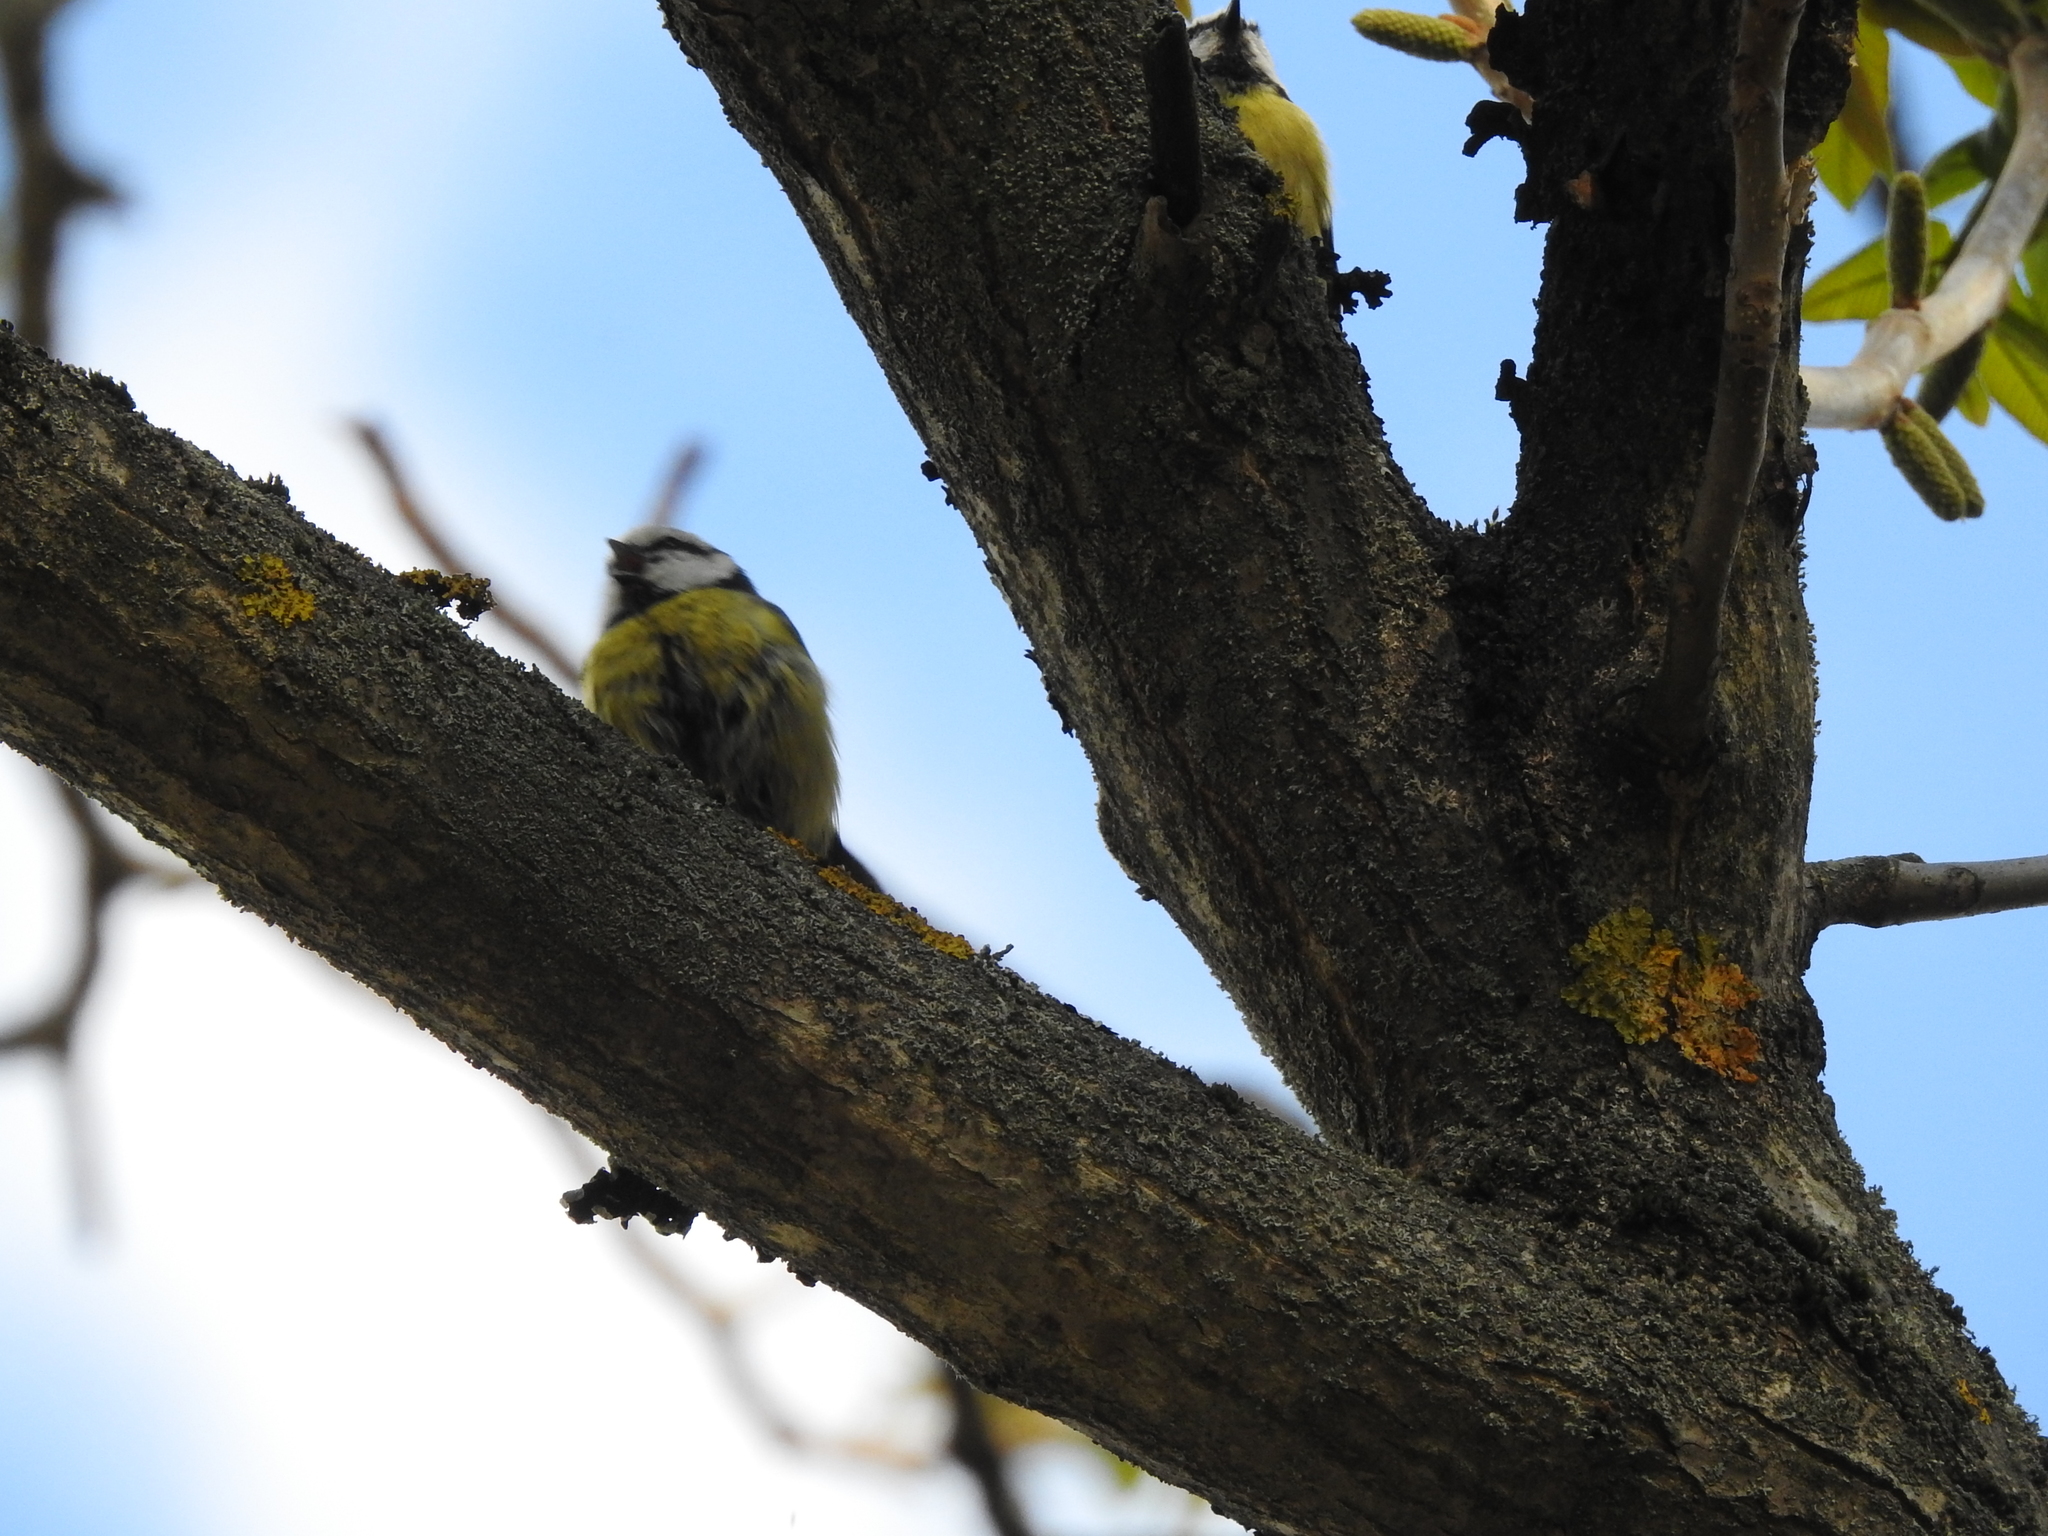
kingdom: Animalia
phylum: Chordata
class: Aves
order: Passeriformes
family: Paridae
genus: Cyanistes
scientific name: Cyanistes caeruleus
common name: Eurasian blue tit
